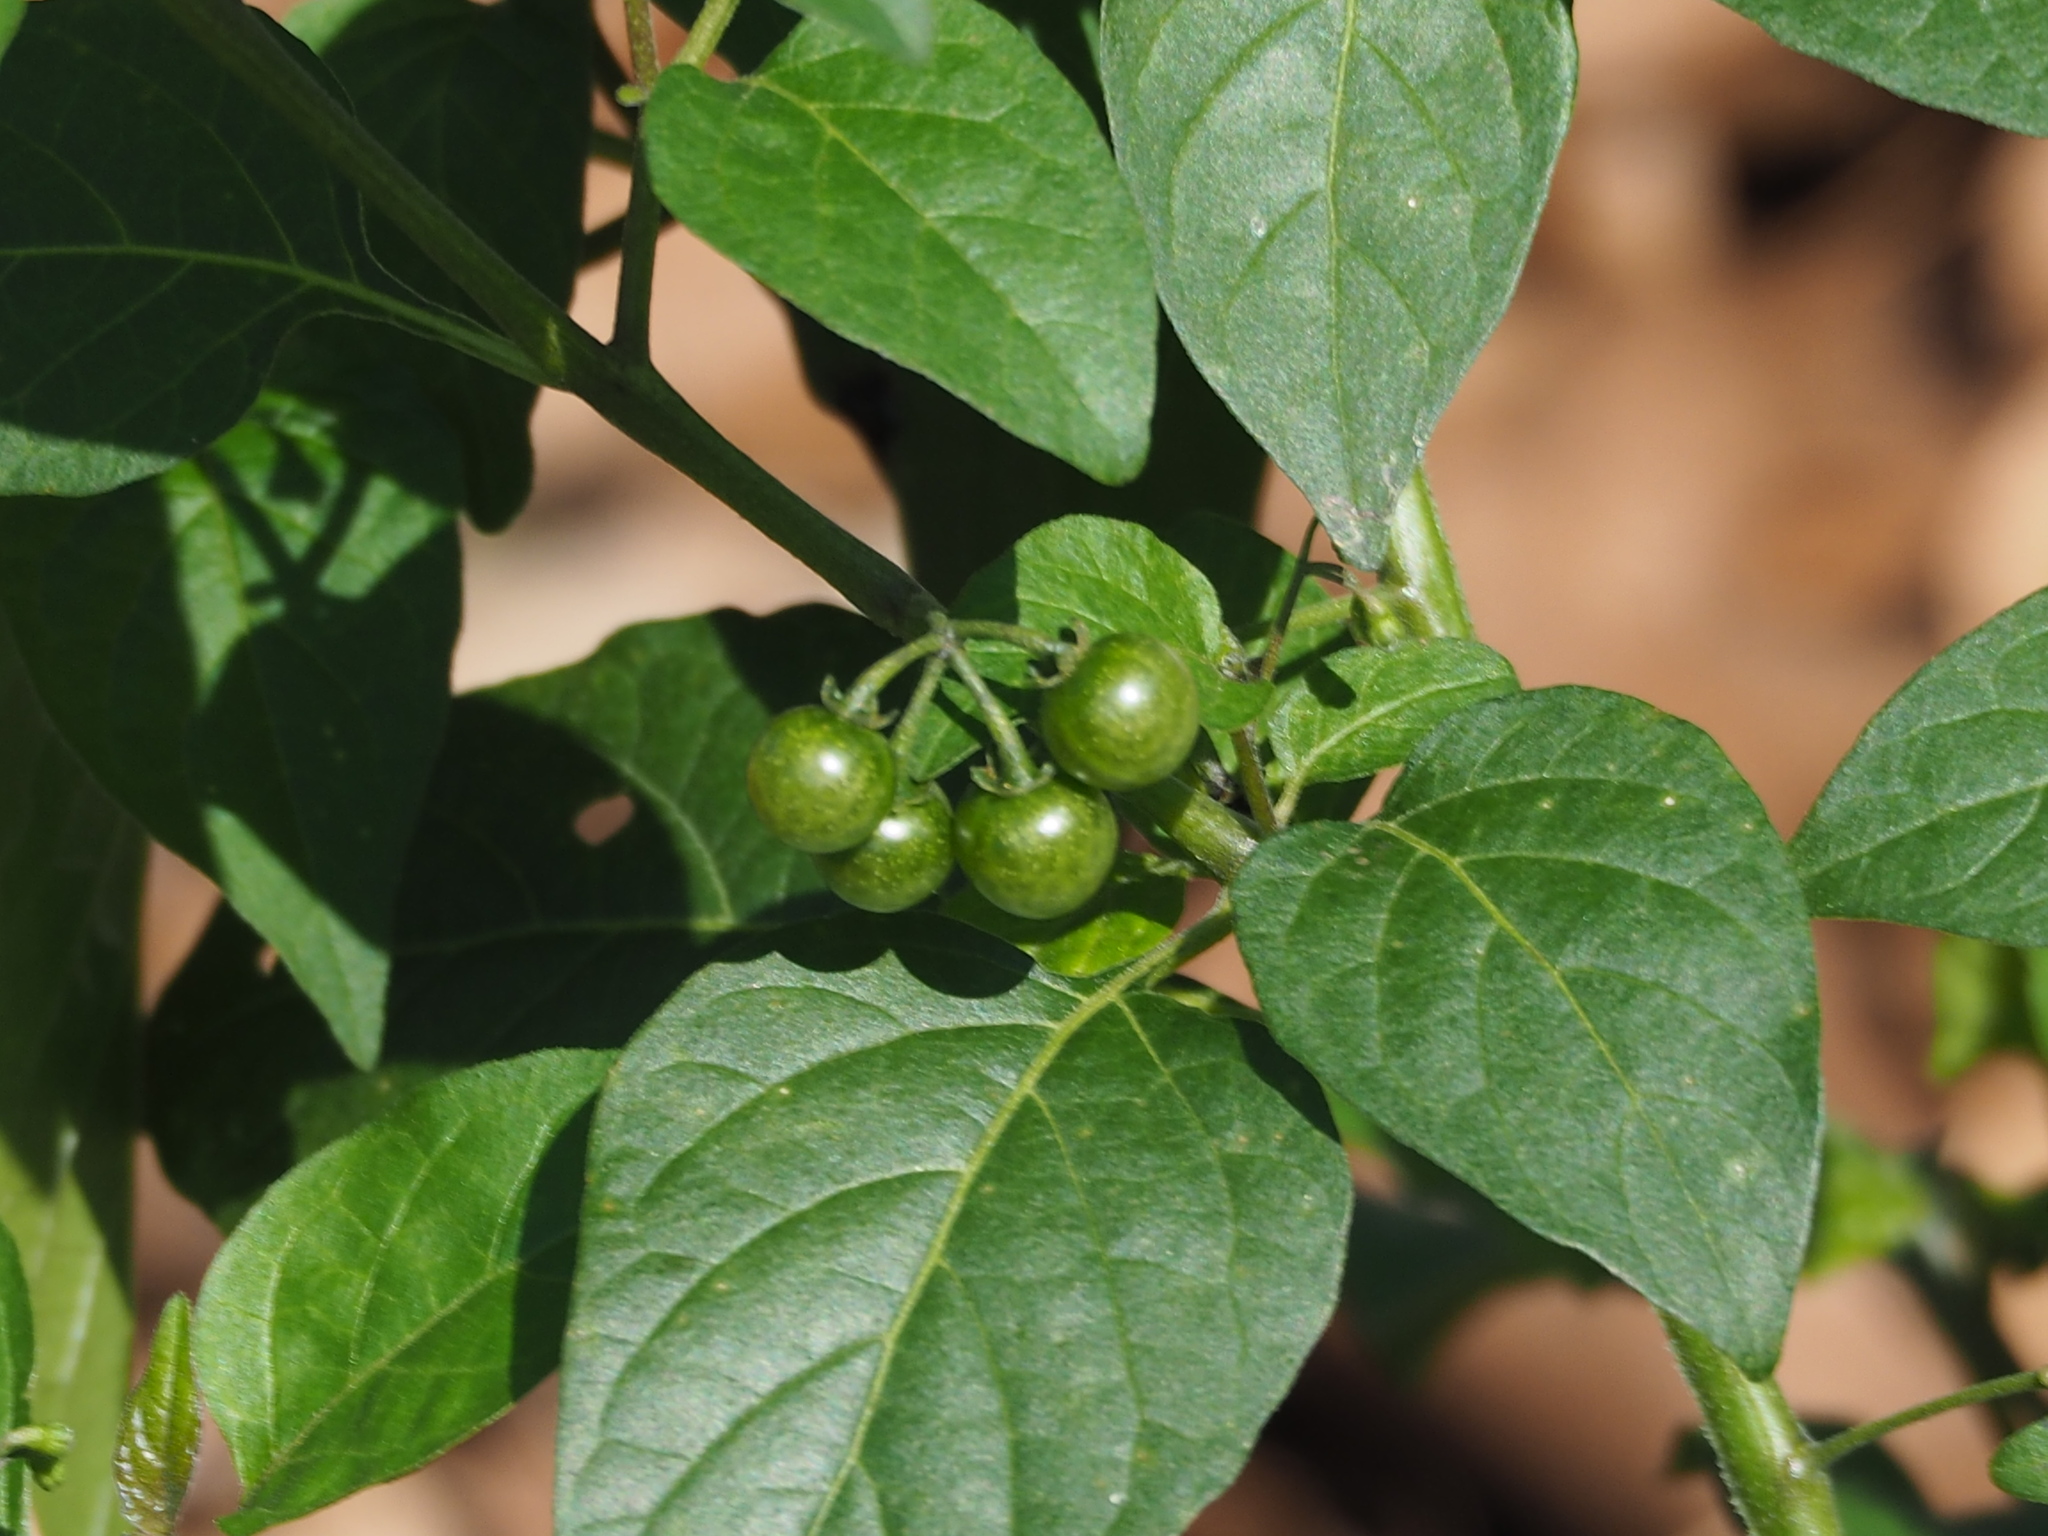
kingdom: Plantae
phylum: Tracheophyta
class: Magnoliopsida
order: Solanales
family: Solanaceae
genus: Solanum
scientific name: Solanum americanum
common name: American black nightshade
